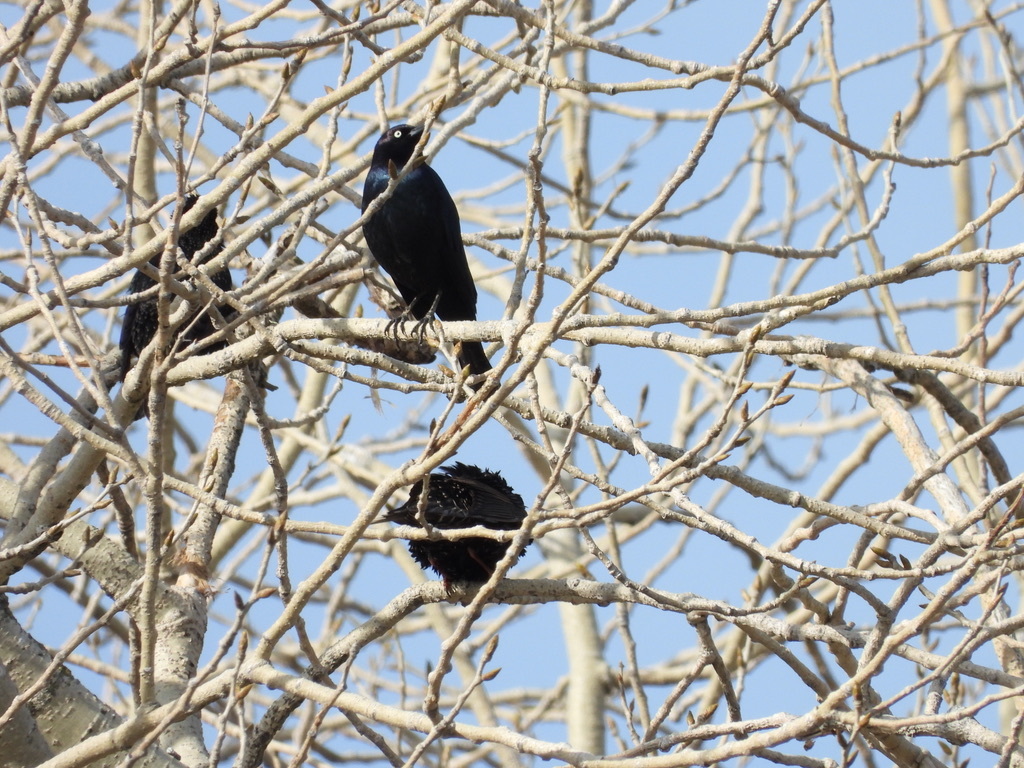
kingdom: Animalia
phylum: Chordata
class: Aves
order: Passeriformes
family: Icteridae
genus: Euphagus
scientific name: Euphagus cyanocephalus
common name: Brewer's blackbird
